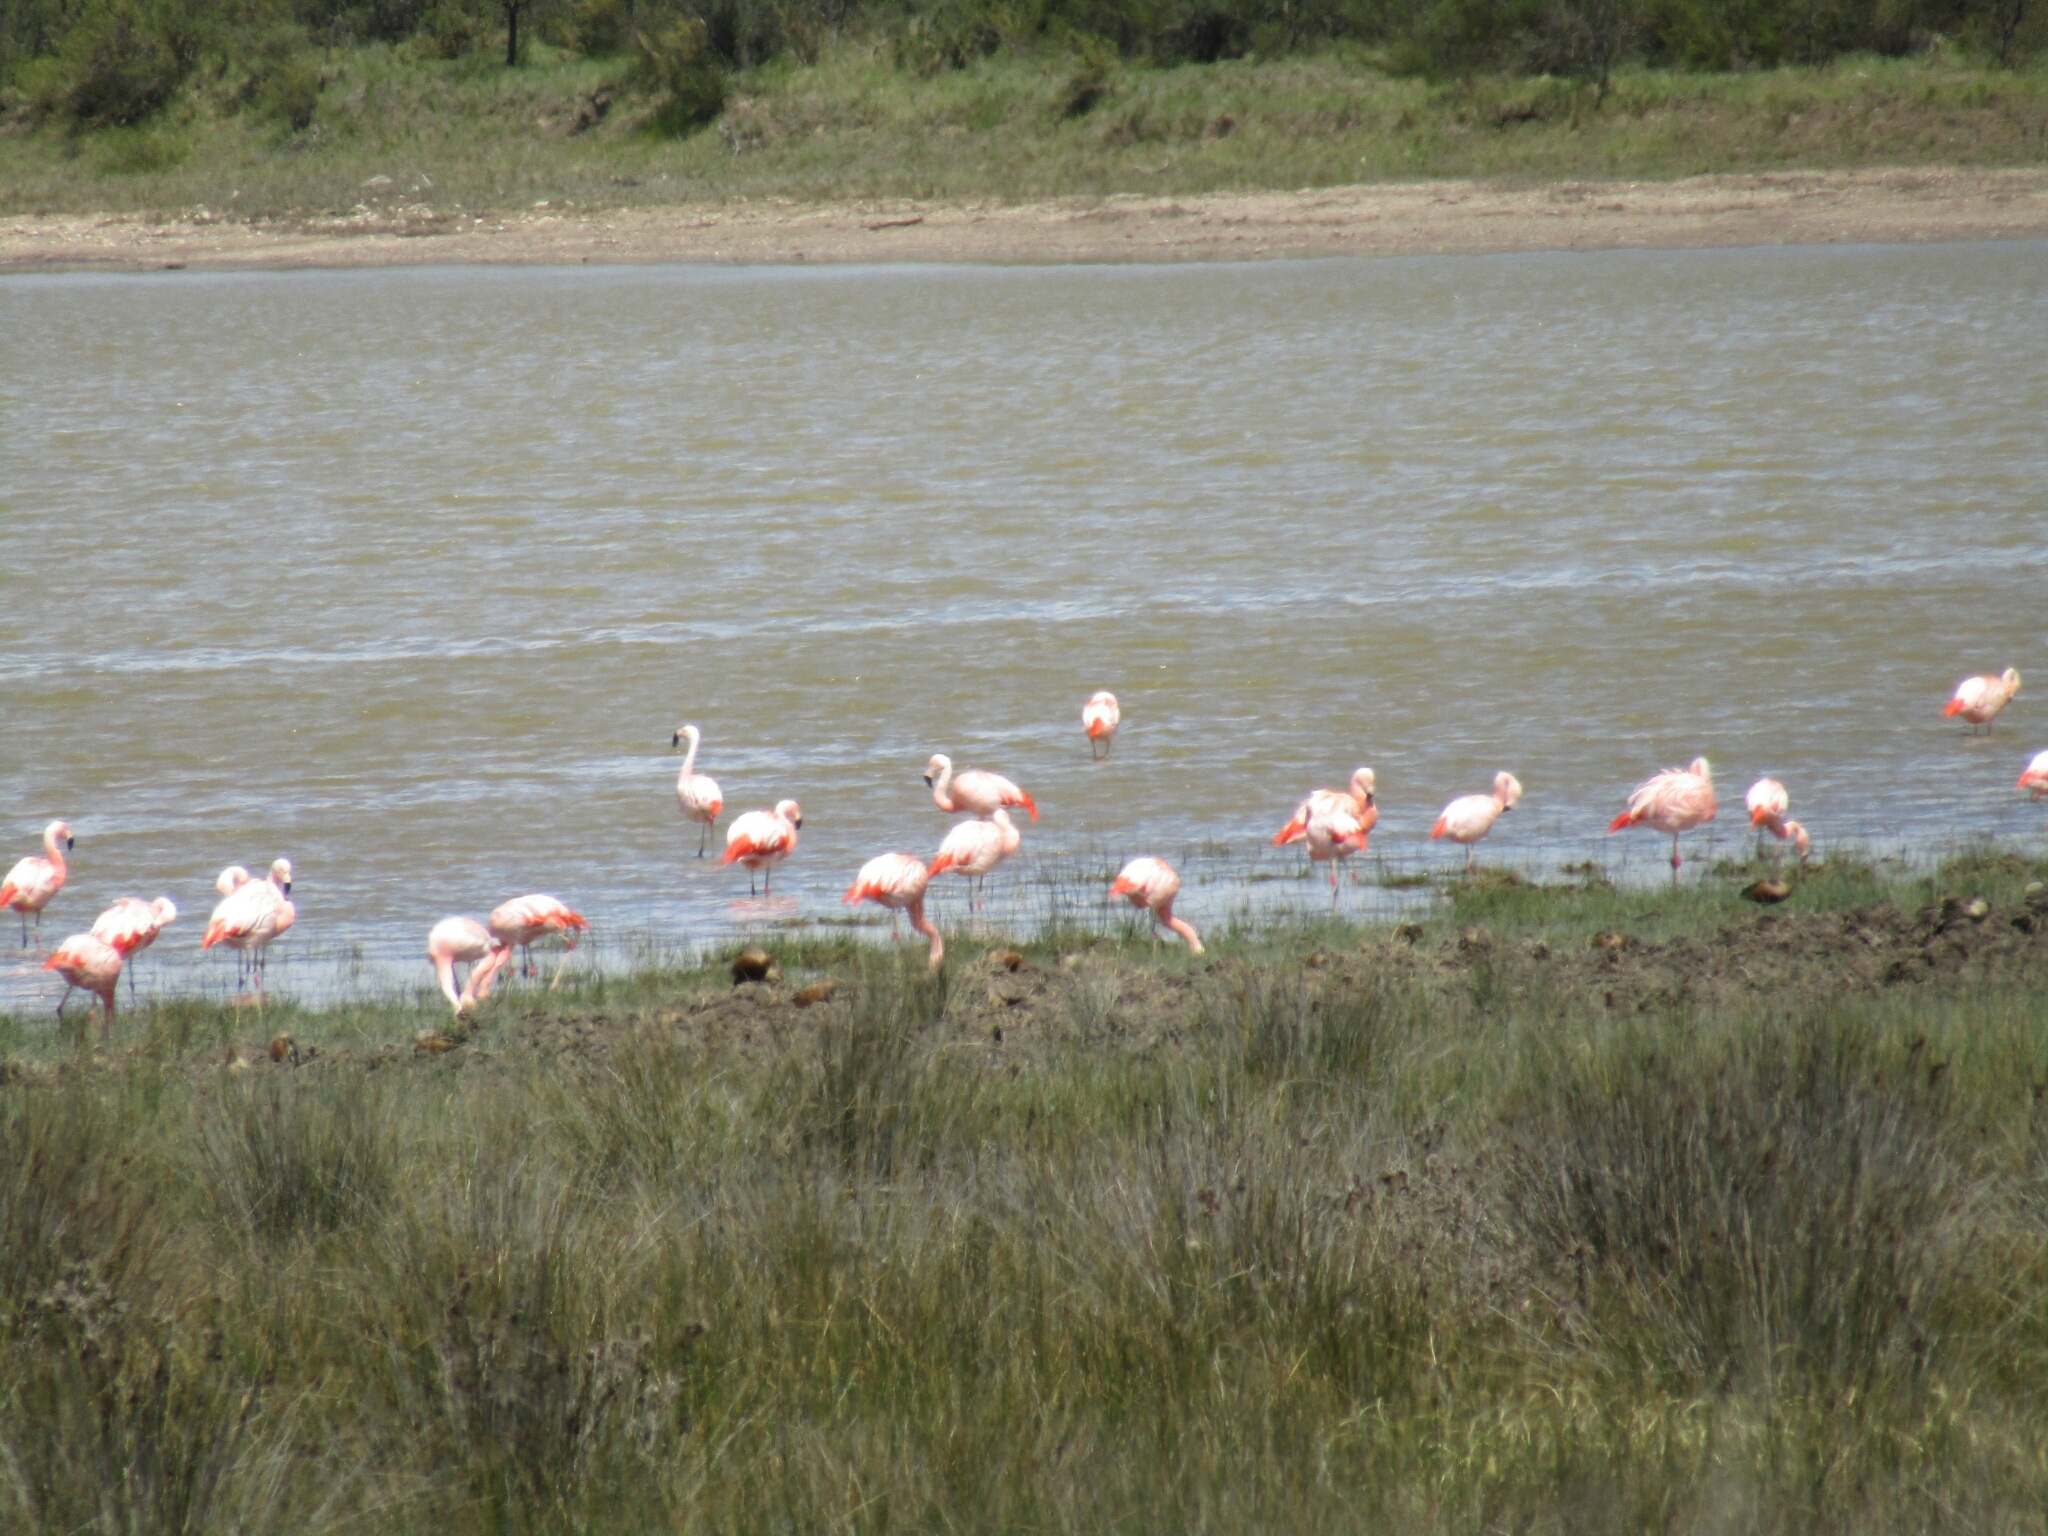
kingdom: Animalia
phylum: Chordata
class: Aves
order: Phoenicopteriformes
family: Phoenicopteridae
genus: Phoenicopterus
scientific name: Phoenicopterus chilensis
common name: Chilean flamingo
